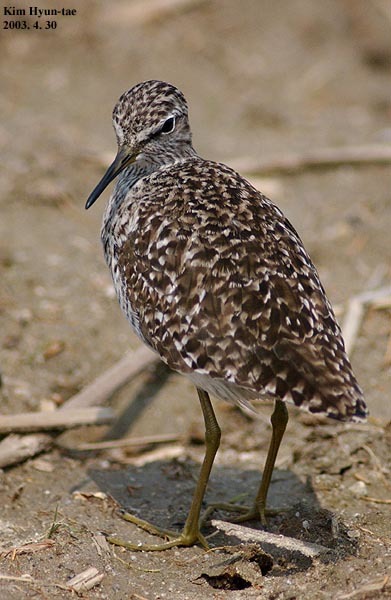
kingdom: Animalia
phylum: Chordata
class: Aves
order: Charadriiformes
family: Scolopacidae
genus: Tringa
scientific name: Tringa glareola
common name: Wood sandpiper
